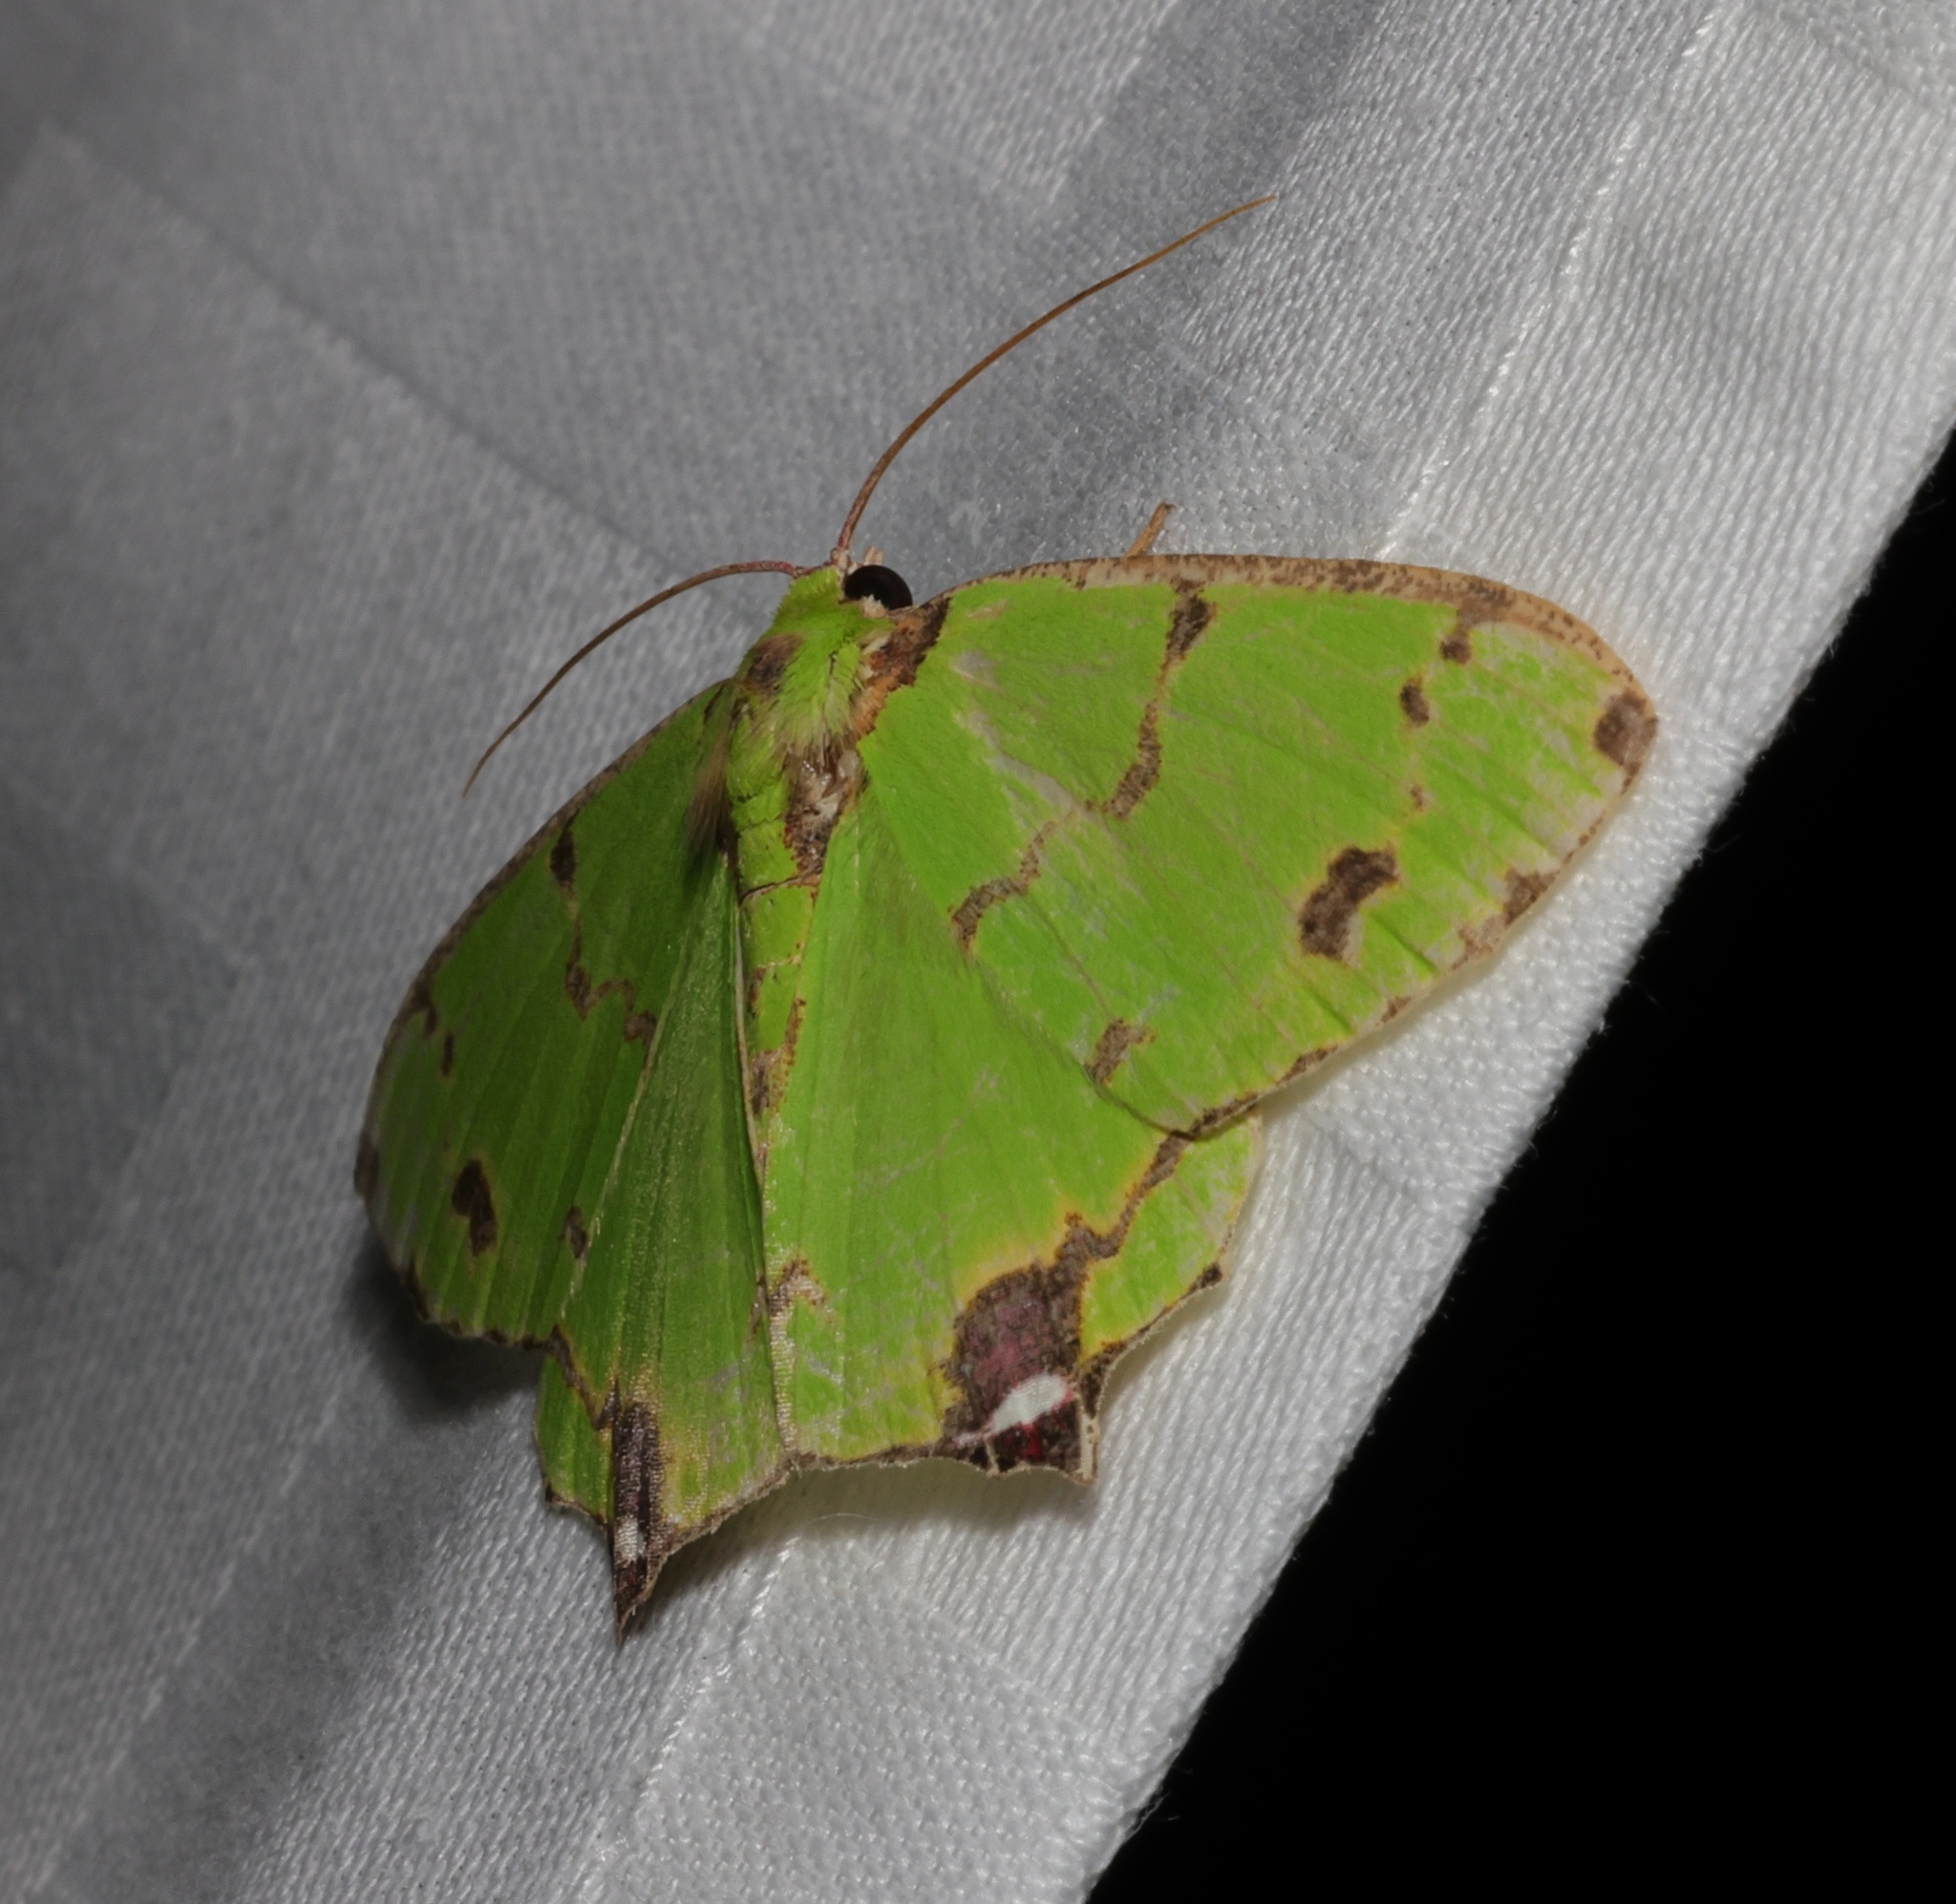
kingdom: Animalia
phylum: Arthropoda
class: Insecta
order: Lepidoptera
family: Geometridae
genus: Agathia
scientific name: Agathia lycaenaria
